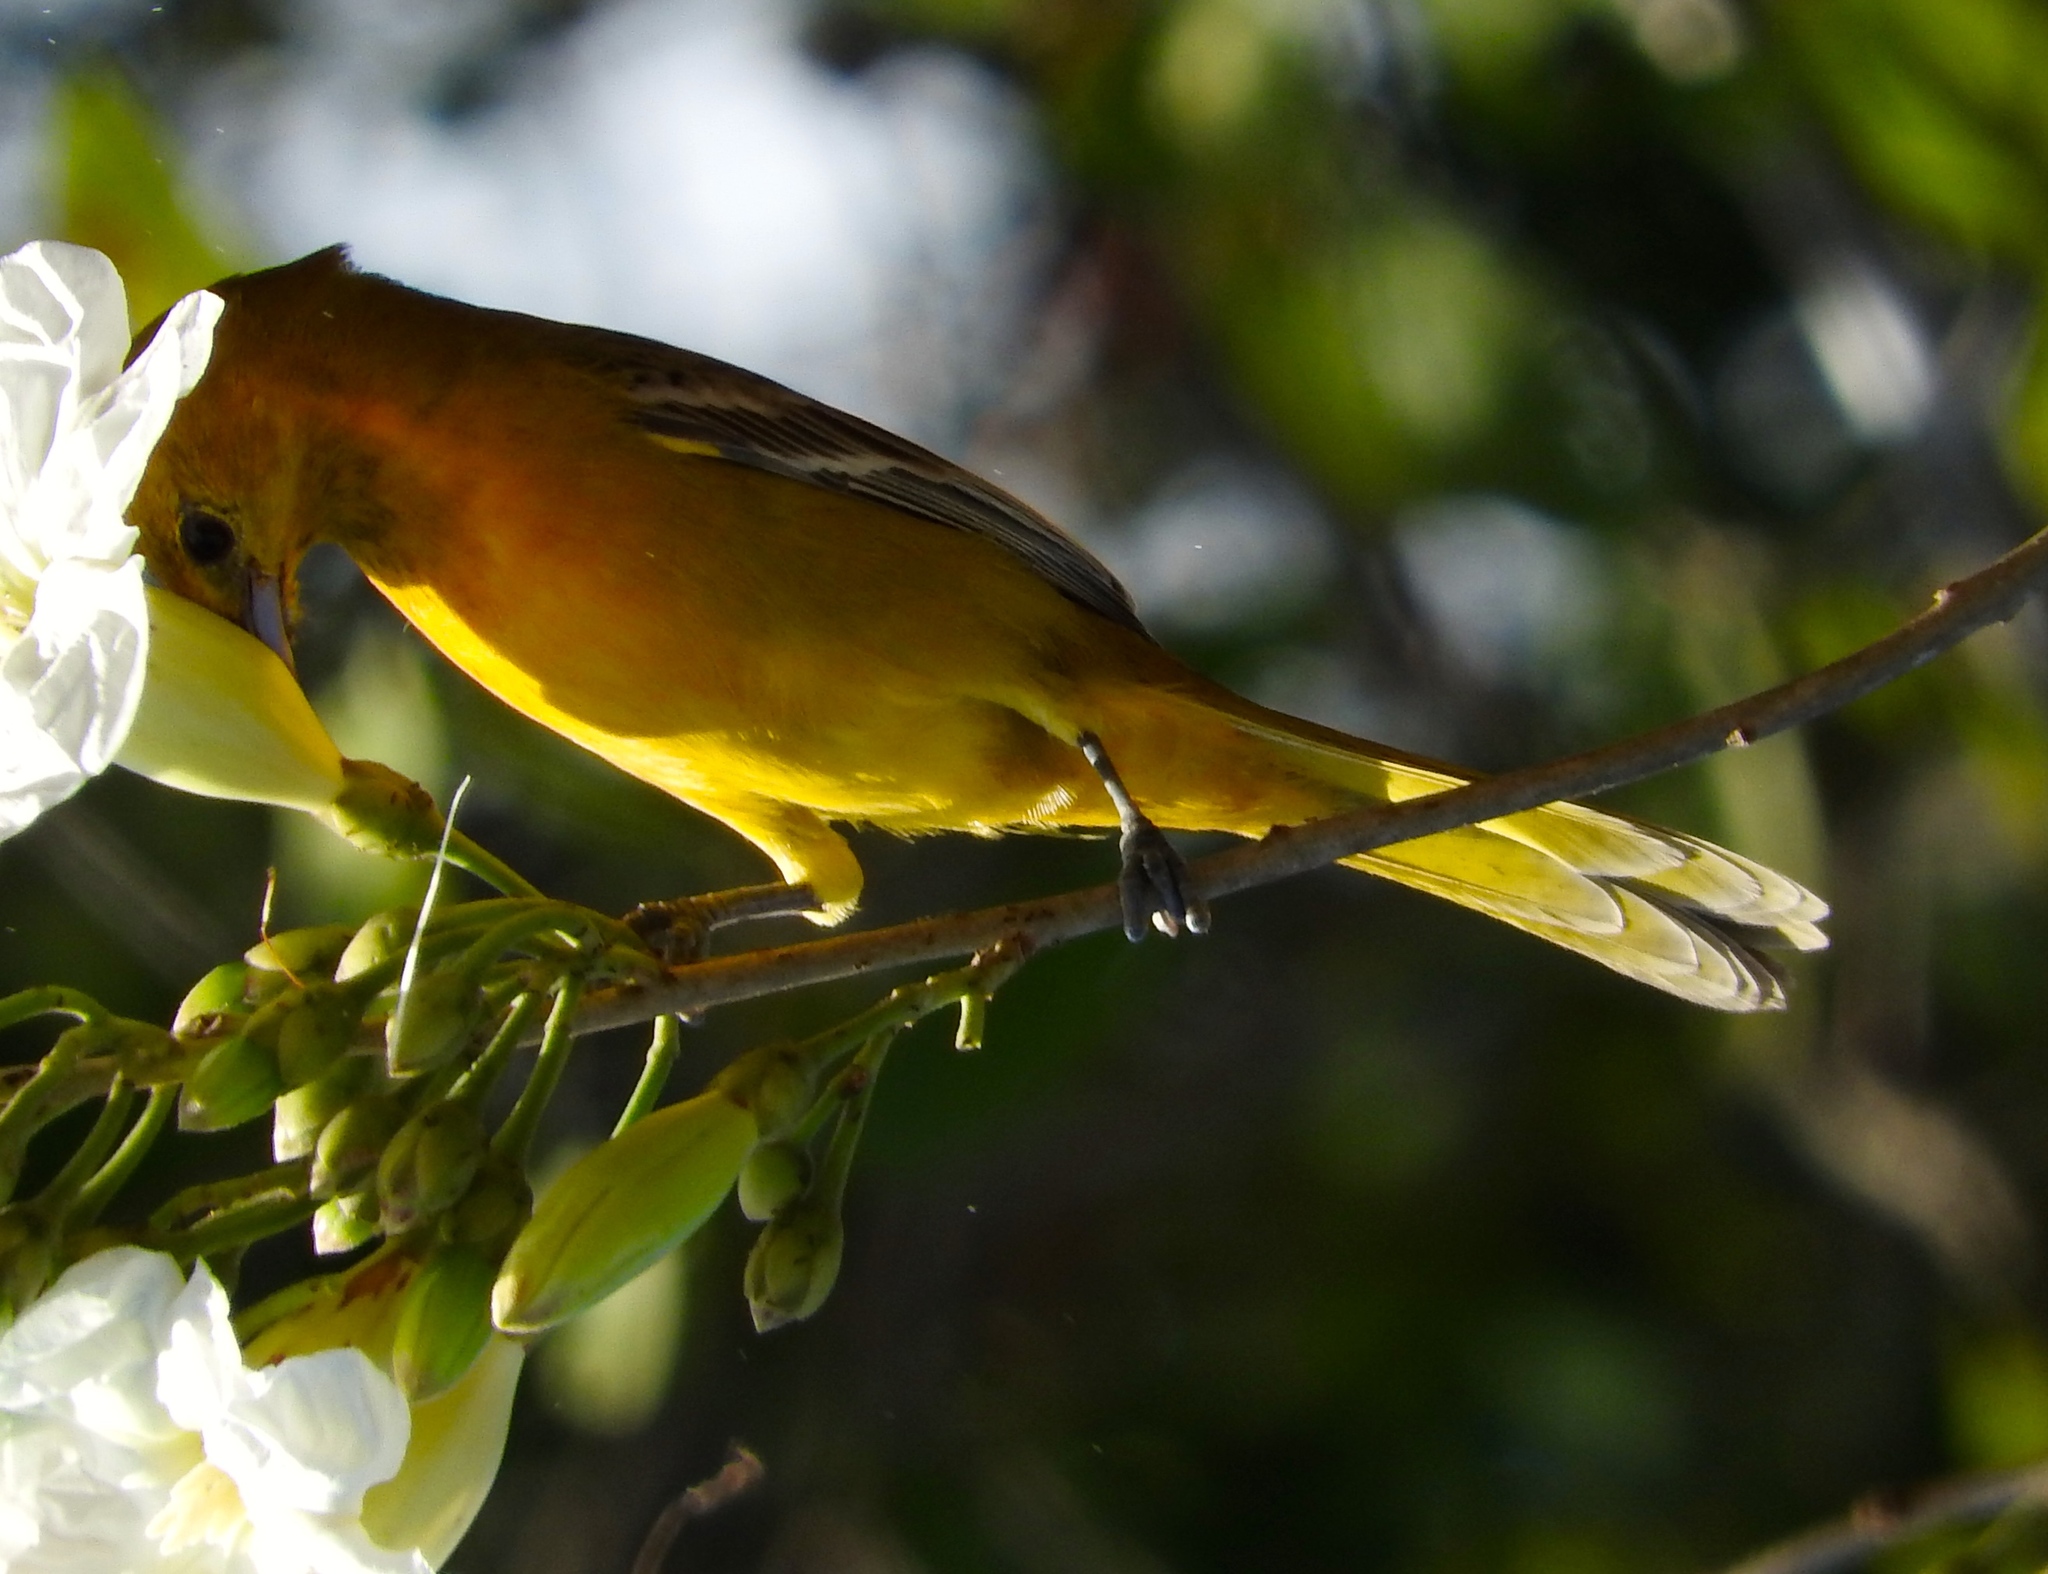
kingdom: Animalia
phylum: Chordata
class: Aves
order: Passeriformes
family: Icteridae
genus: Icterus
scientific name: Icterus
